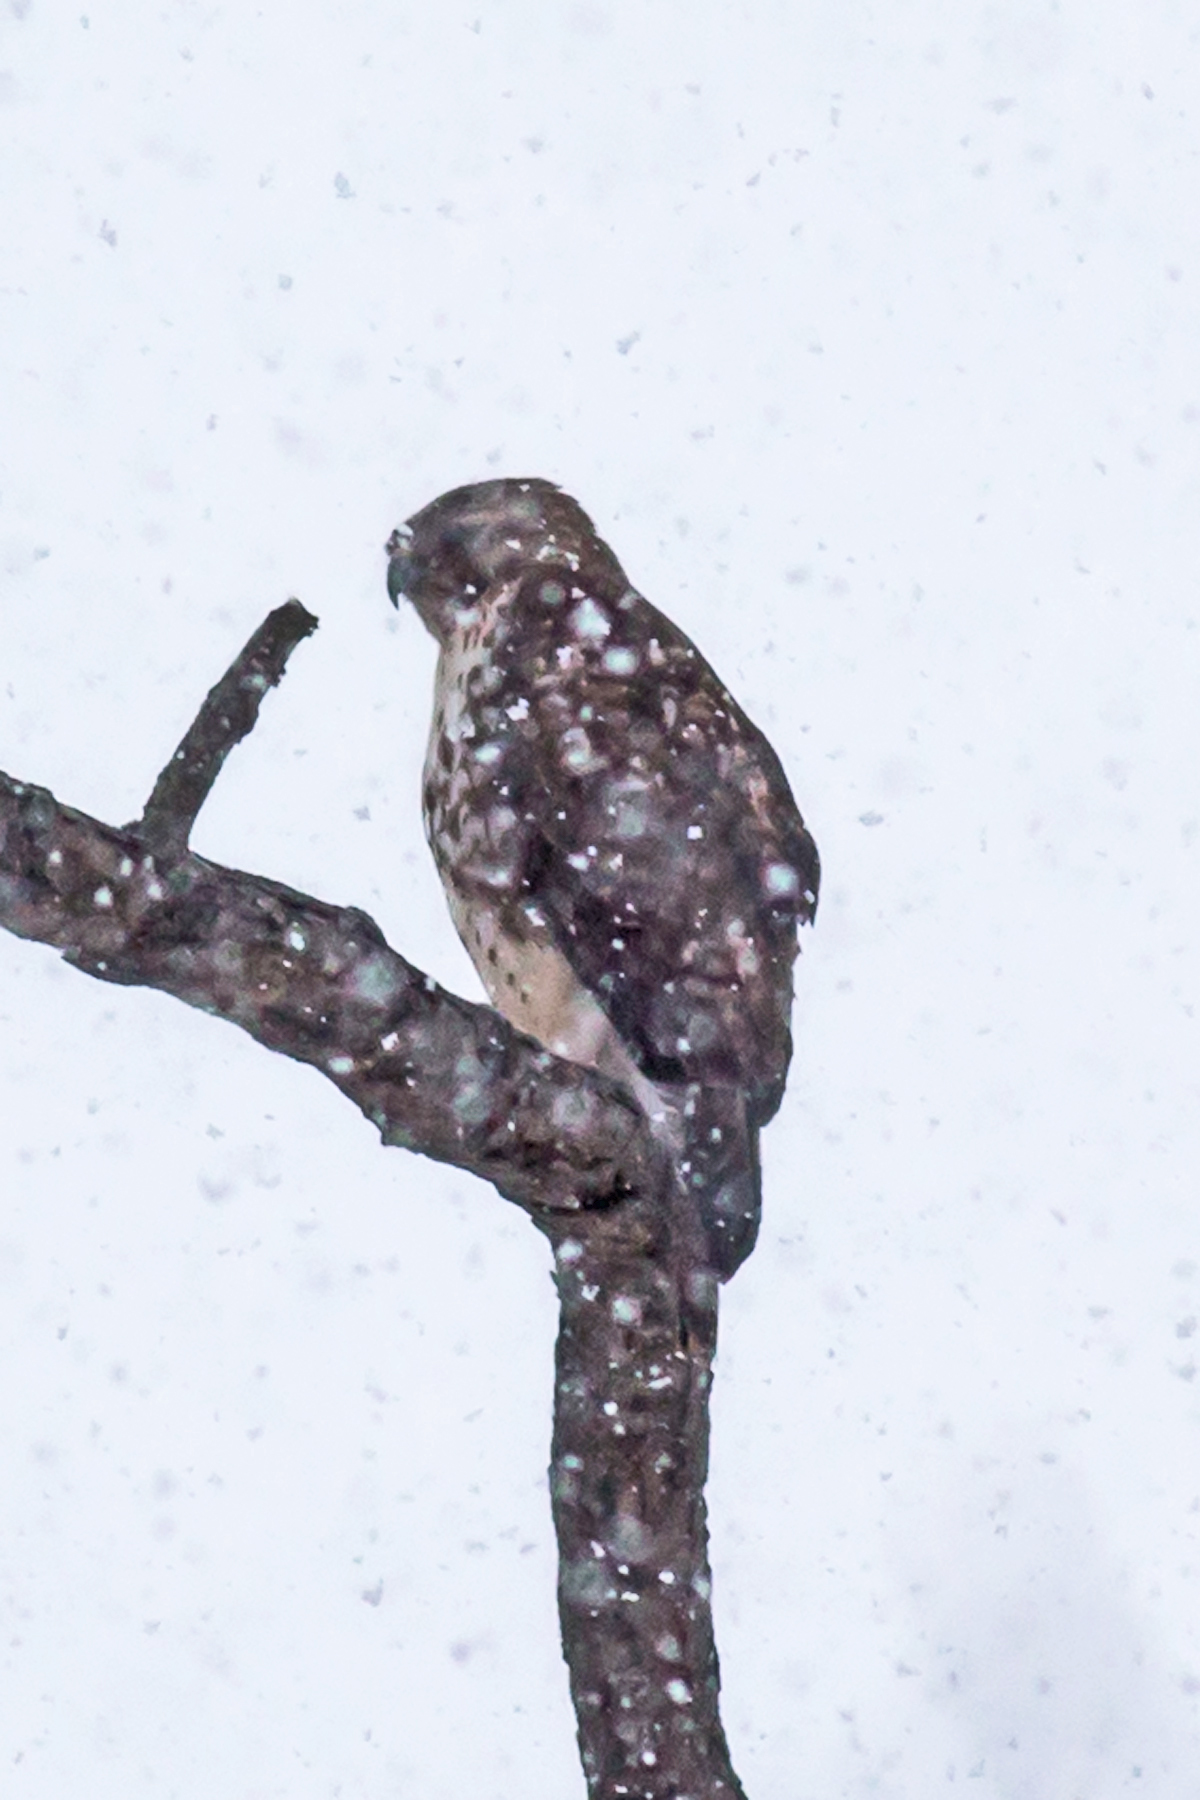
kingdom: Animalia
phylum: Chordata
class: Aves
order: Accipitriformes
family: Accipitridae
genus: Buteo
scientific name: Buteo jamaicensis
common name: Red-tailed hawk
